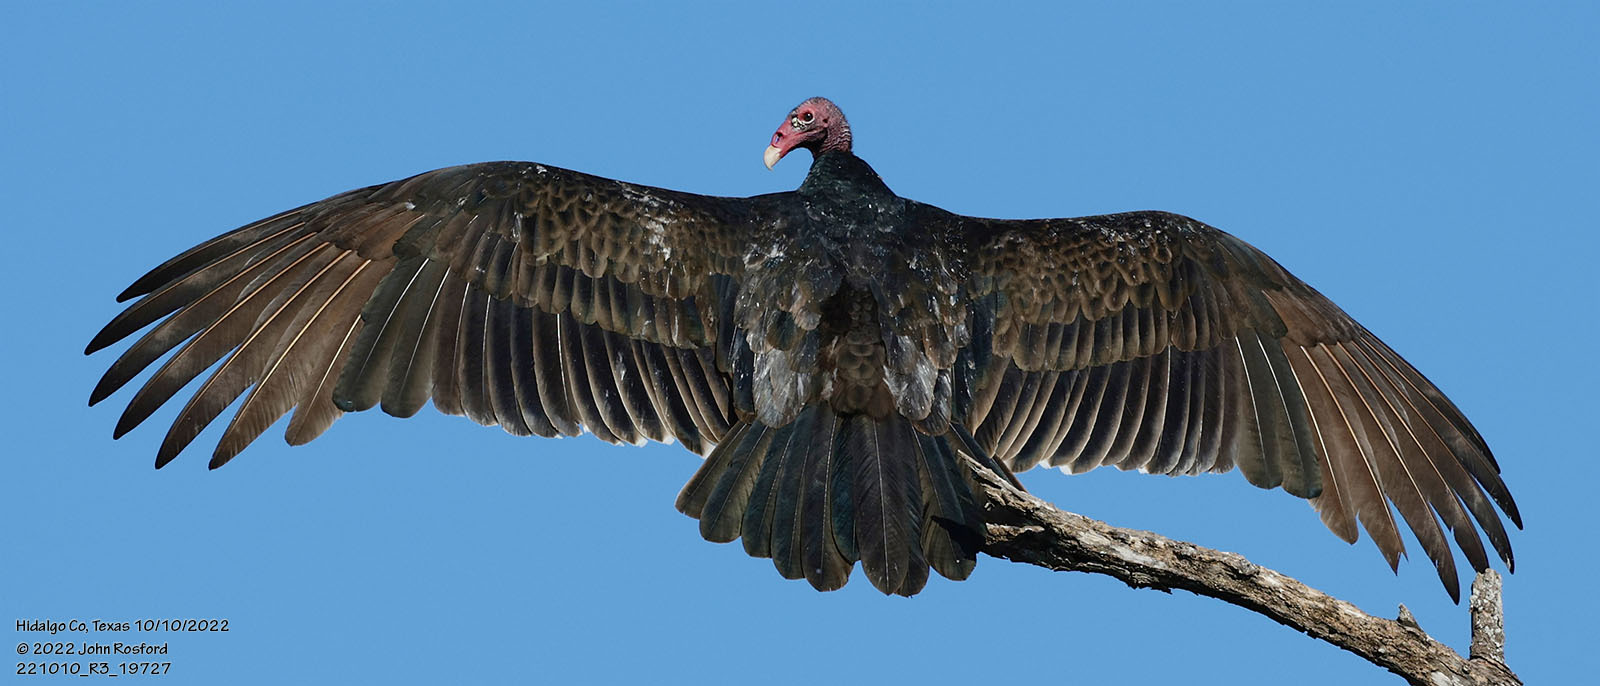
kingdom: Animalia
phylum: Chordata
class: Aves
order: Accipitriformes
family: Cathartidae
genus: Cathartes
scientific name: Cathartes aura
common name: Turkey vulture
